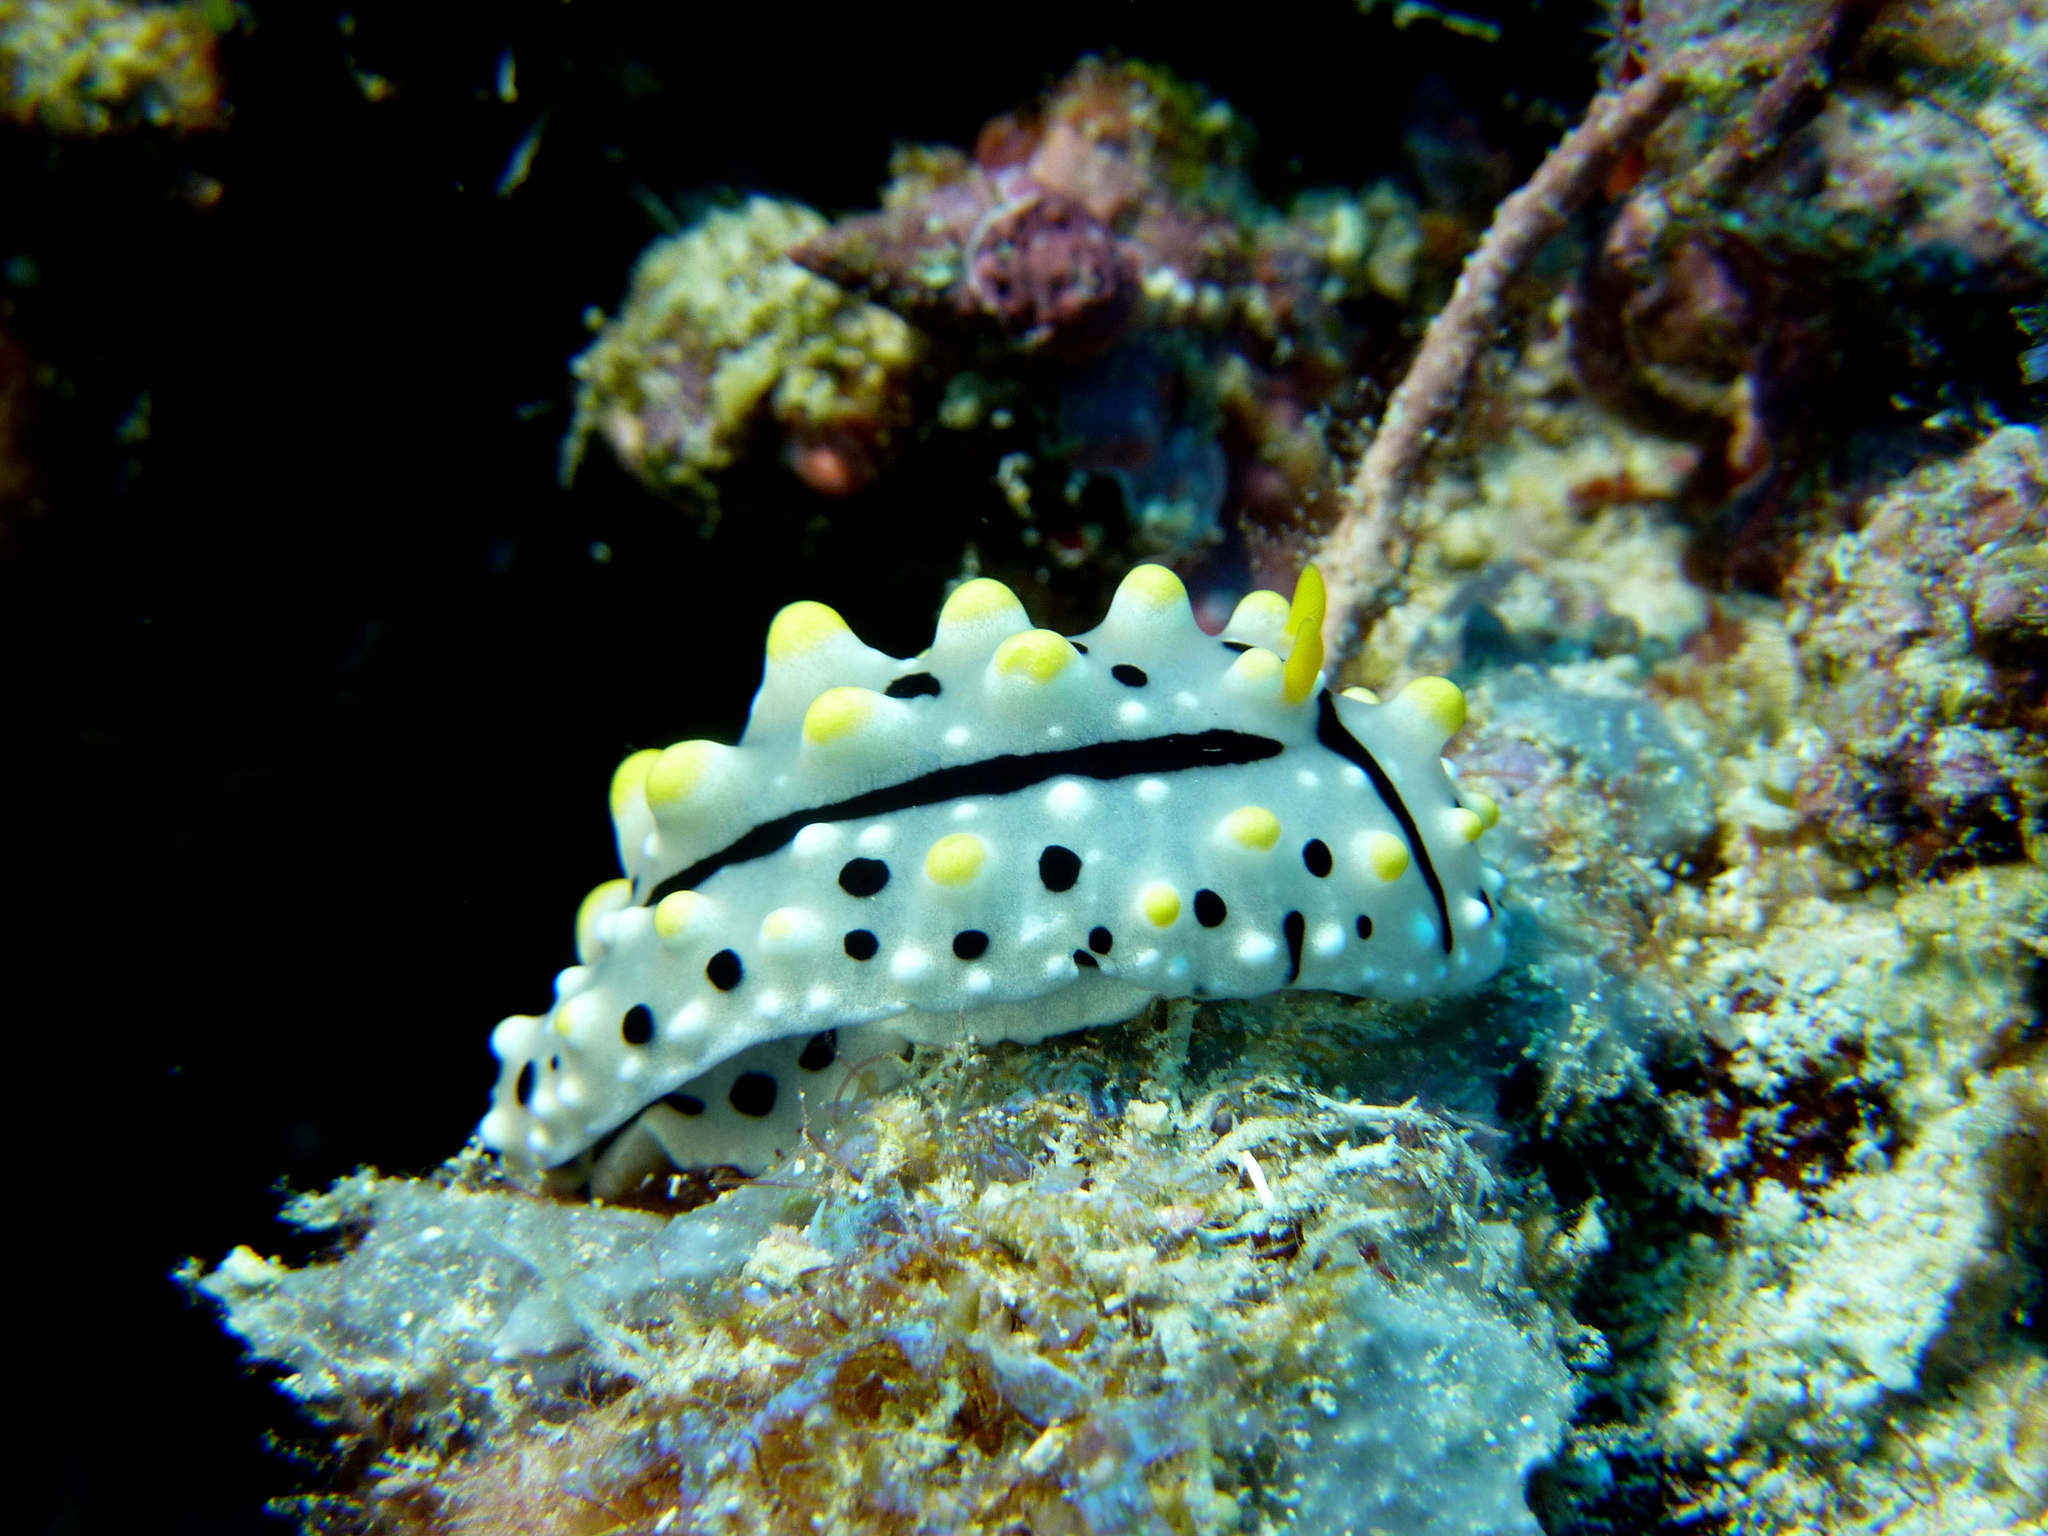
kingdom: Animalia
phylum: Mollusca
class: Gastropoda
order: Nudibranchia
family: Phyllidiidae
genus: Phyllidia
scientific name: Phyllidia elegans
